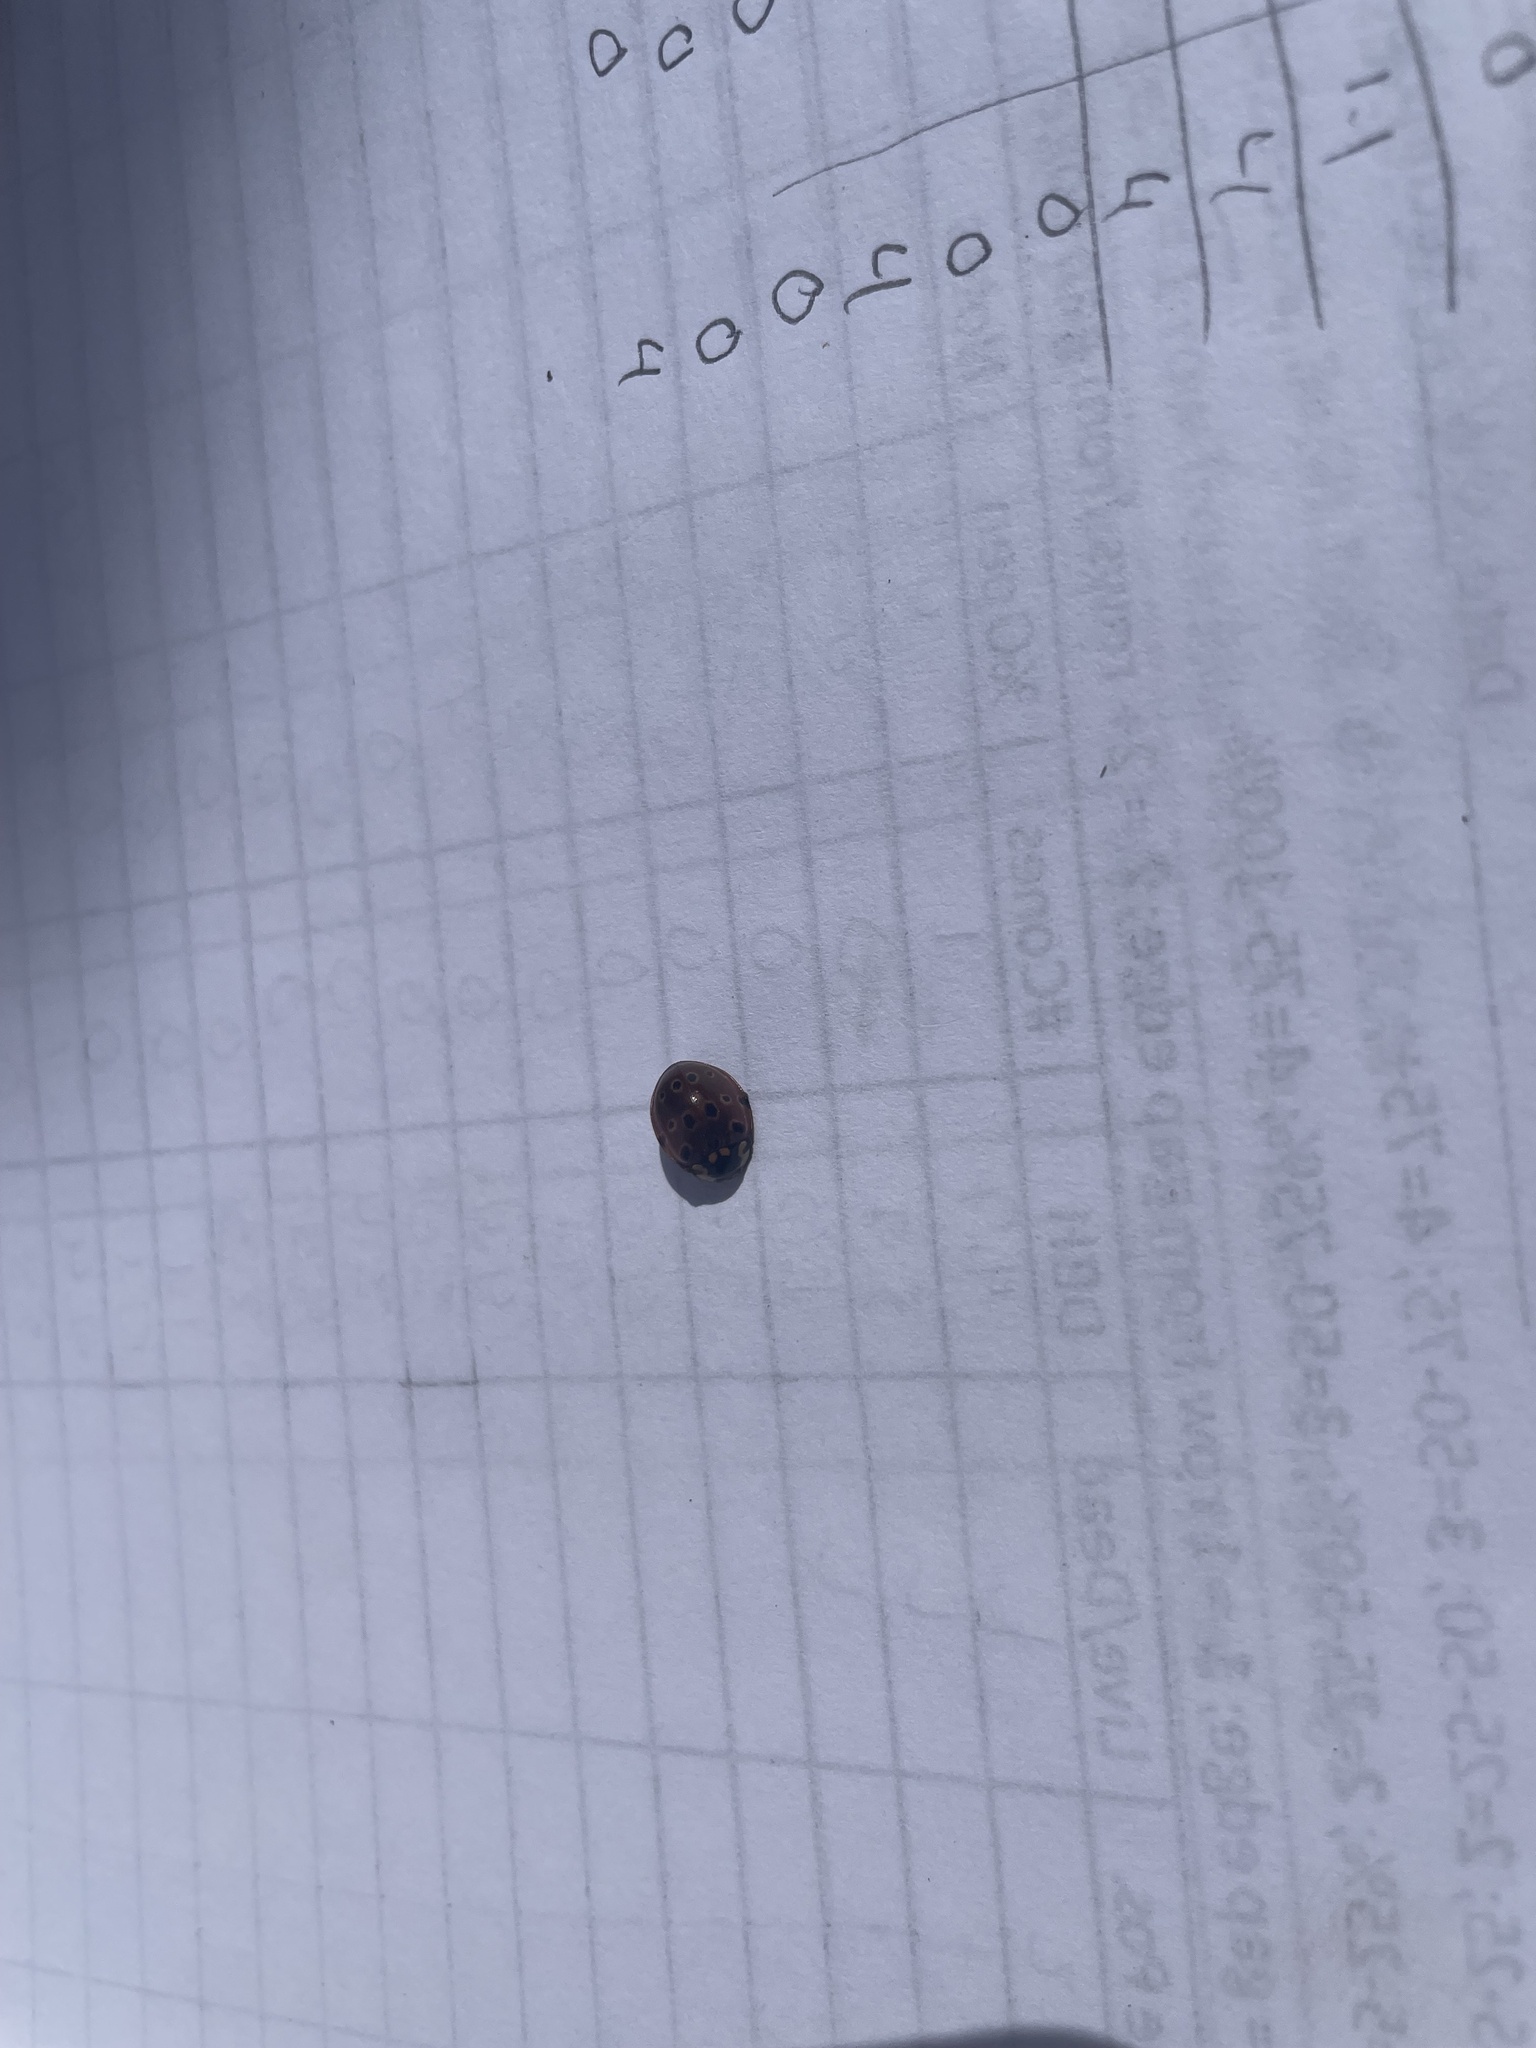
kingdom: Animalia
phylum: Arthropoda
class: Insecta
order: Coleoptera
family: Coccinellidae
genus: Anatis
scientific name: Anatis mali
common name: Eye-spotted lady beetle
